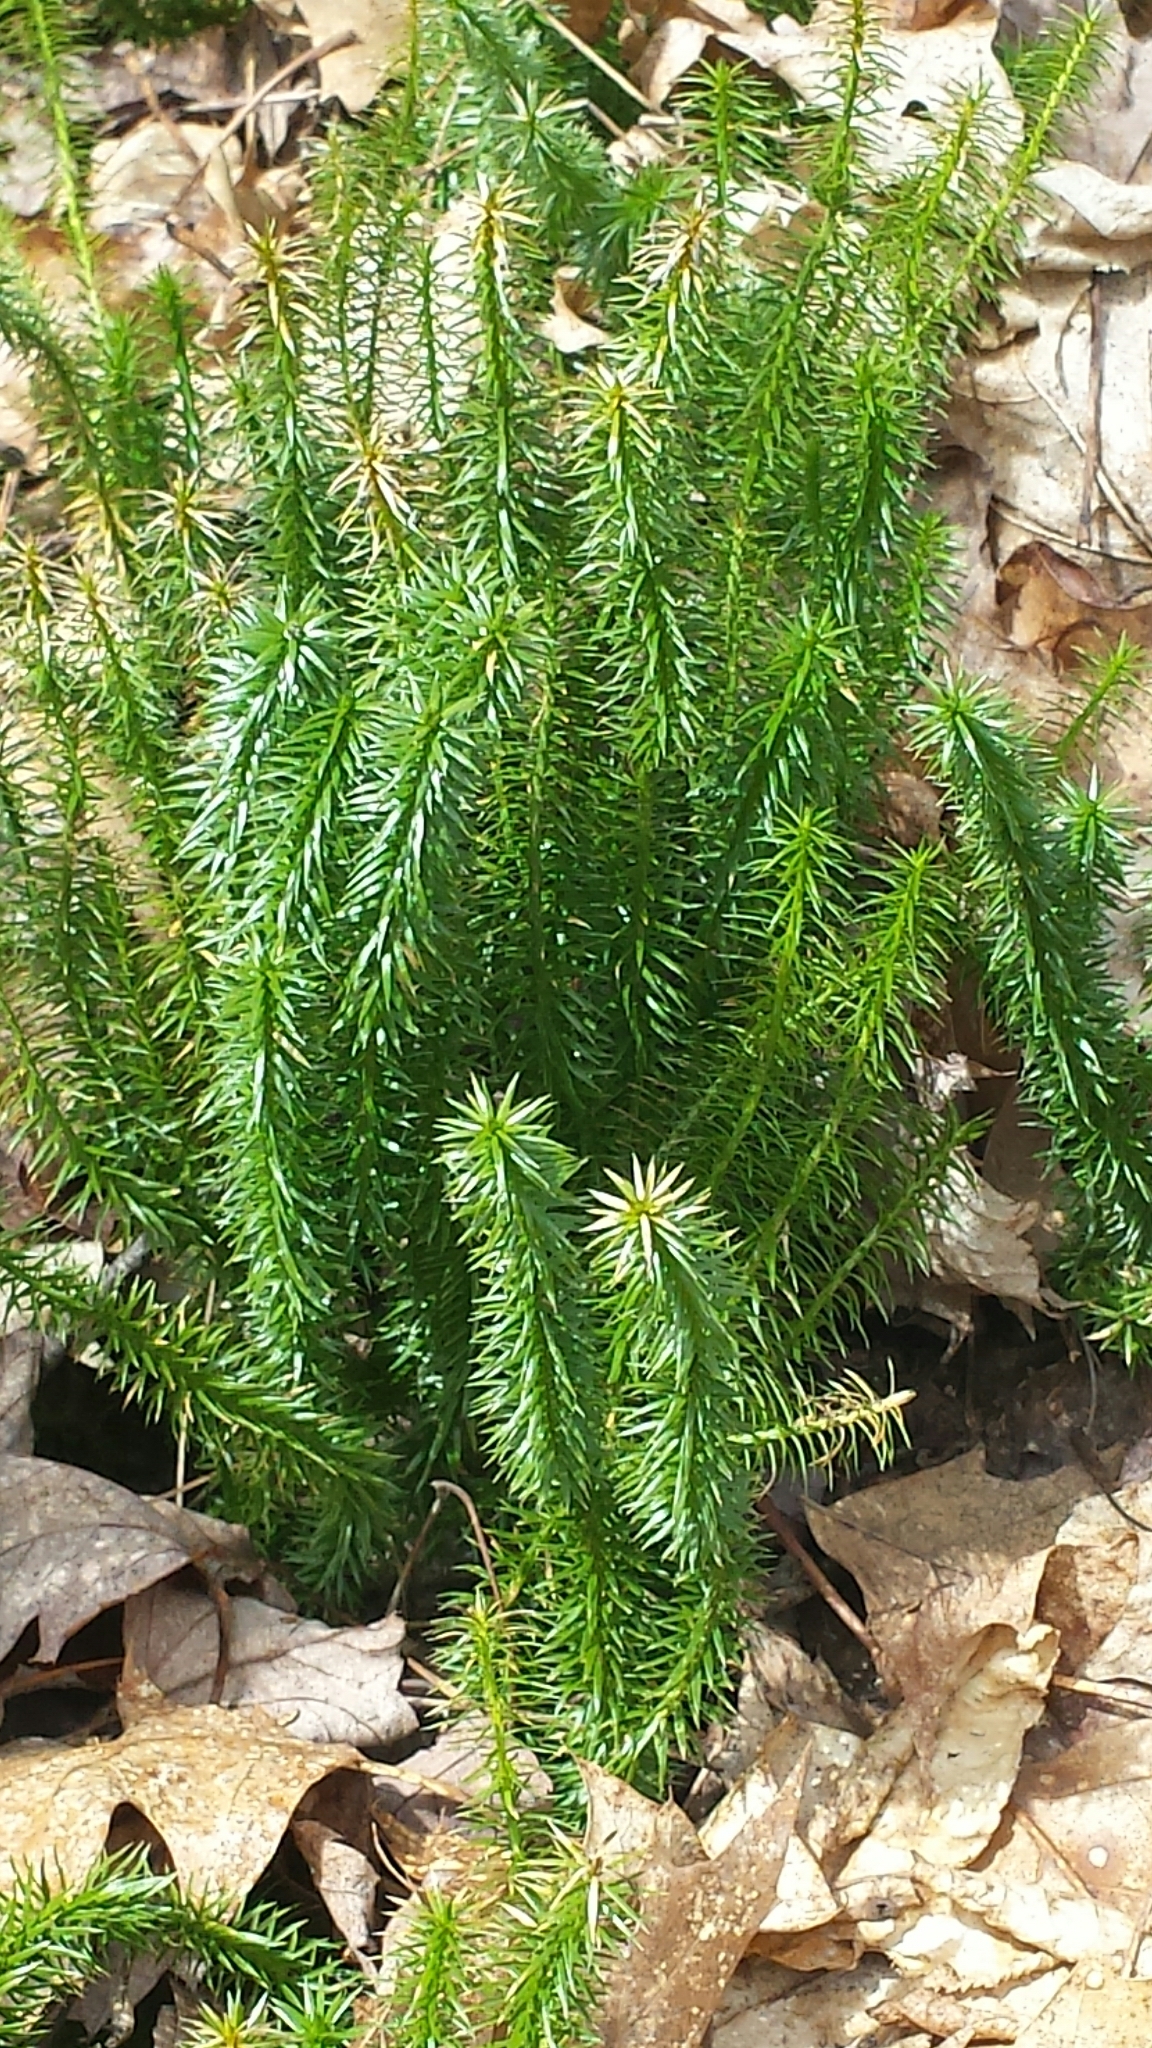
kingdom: Plantae
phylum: Tracheophyta
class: Lycopodiopsida
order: Lycopodiales
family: Lycopodiaceae
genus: Spinulum
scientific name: Spinulum annotinum
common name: Interrupted club-moss
